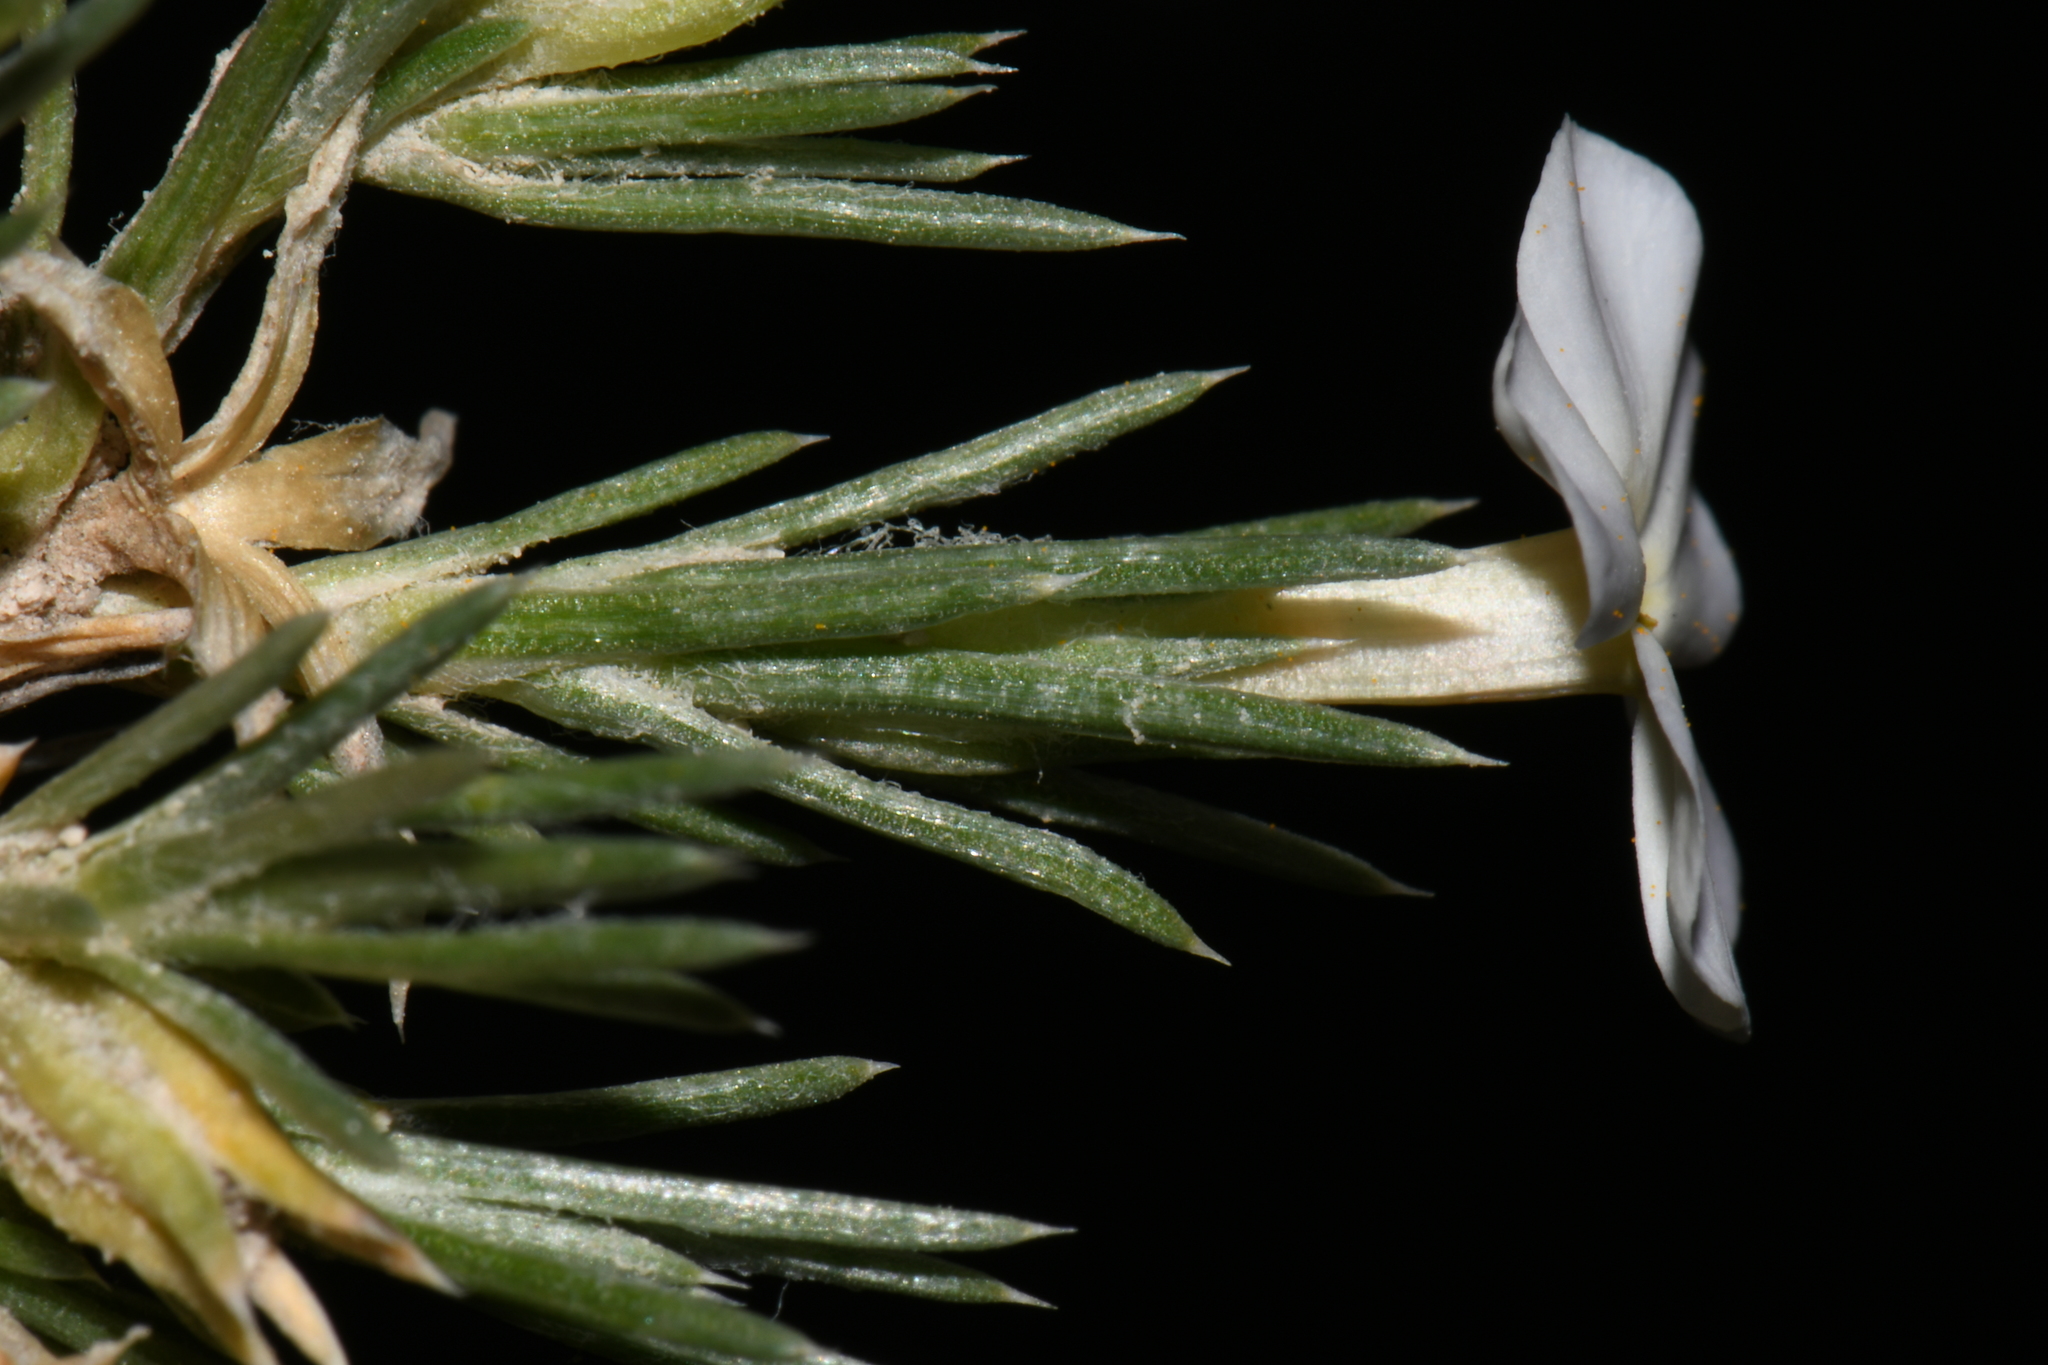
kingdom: Plantae
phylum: Tracheophyta
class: Magnoliopsida
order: Ericales
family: Polemoniaceae
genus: Phlox
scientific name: Phlox andicola
